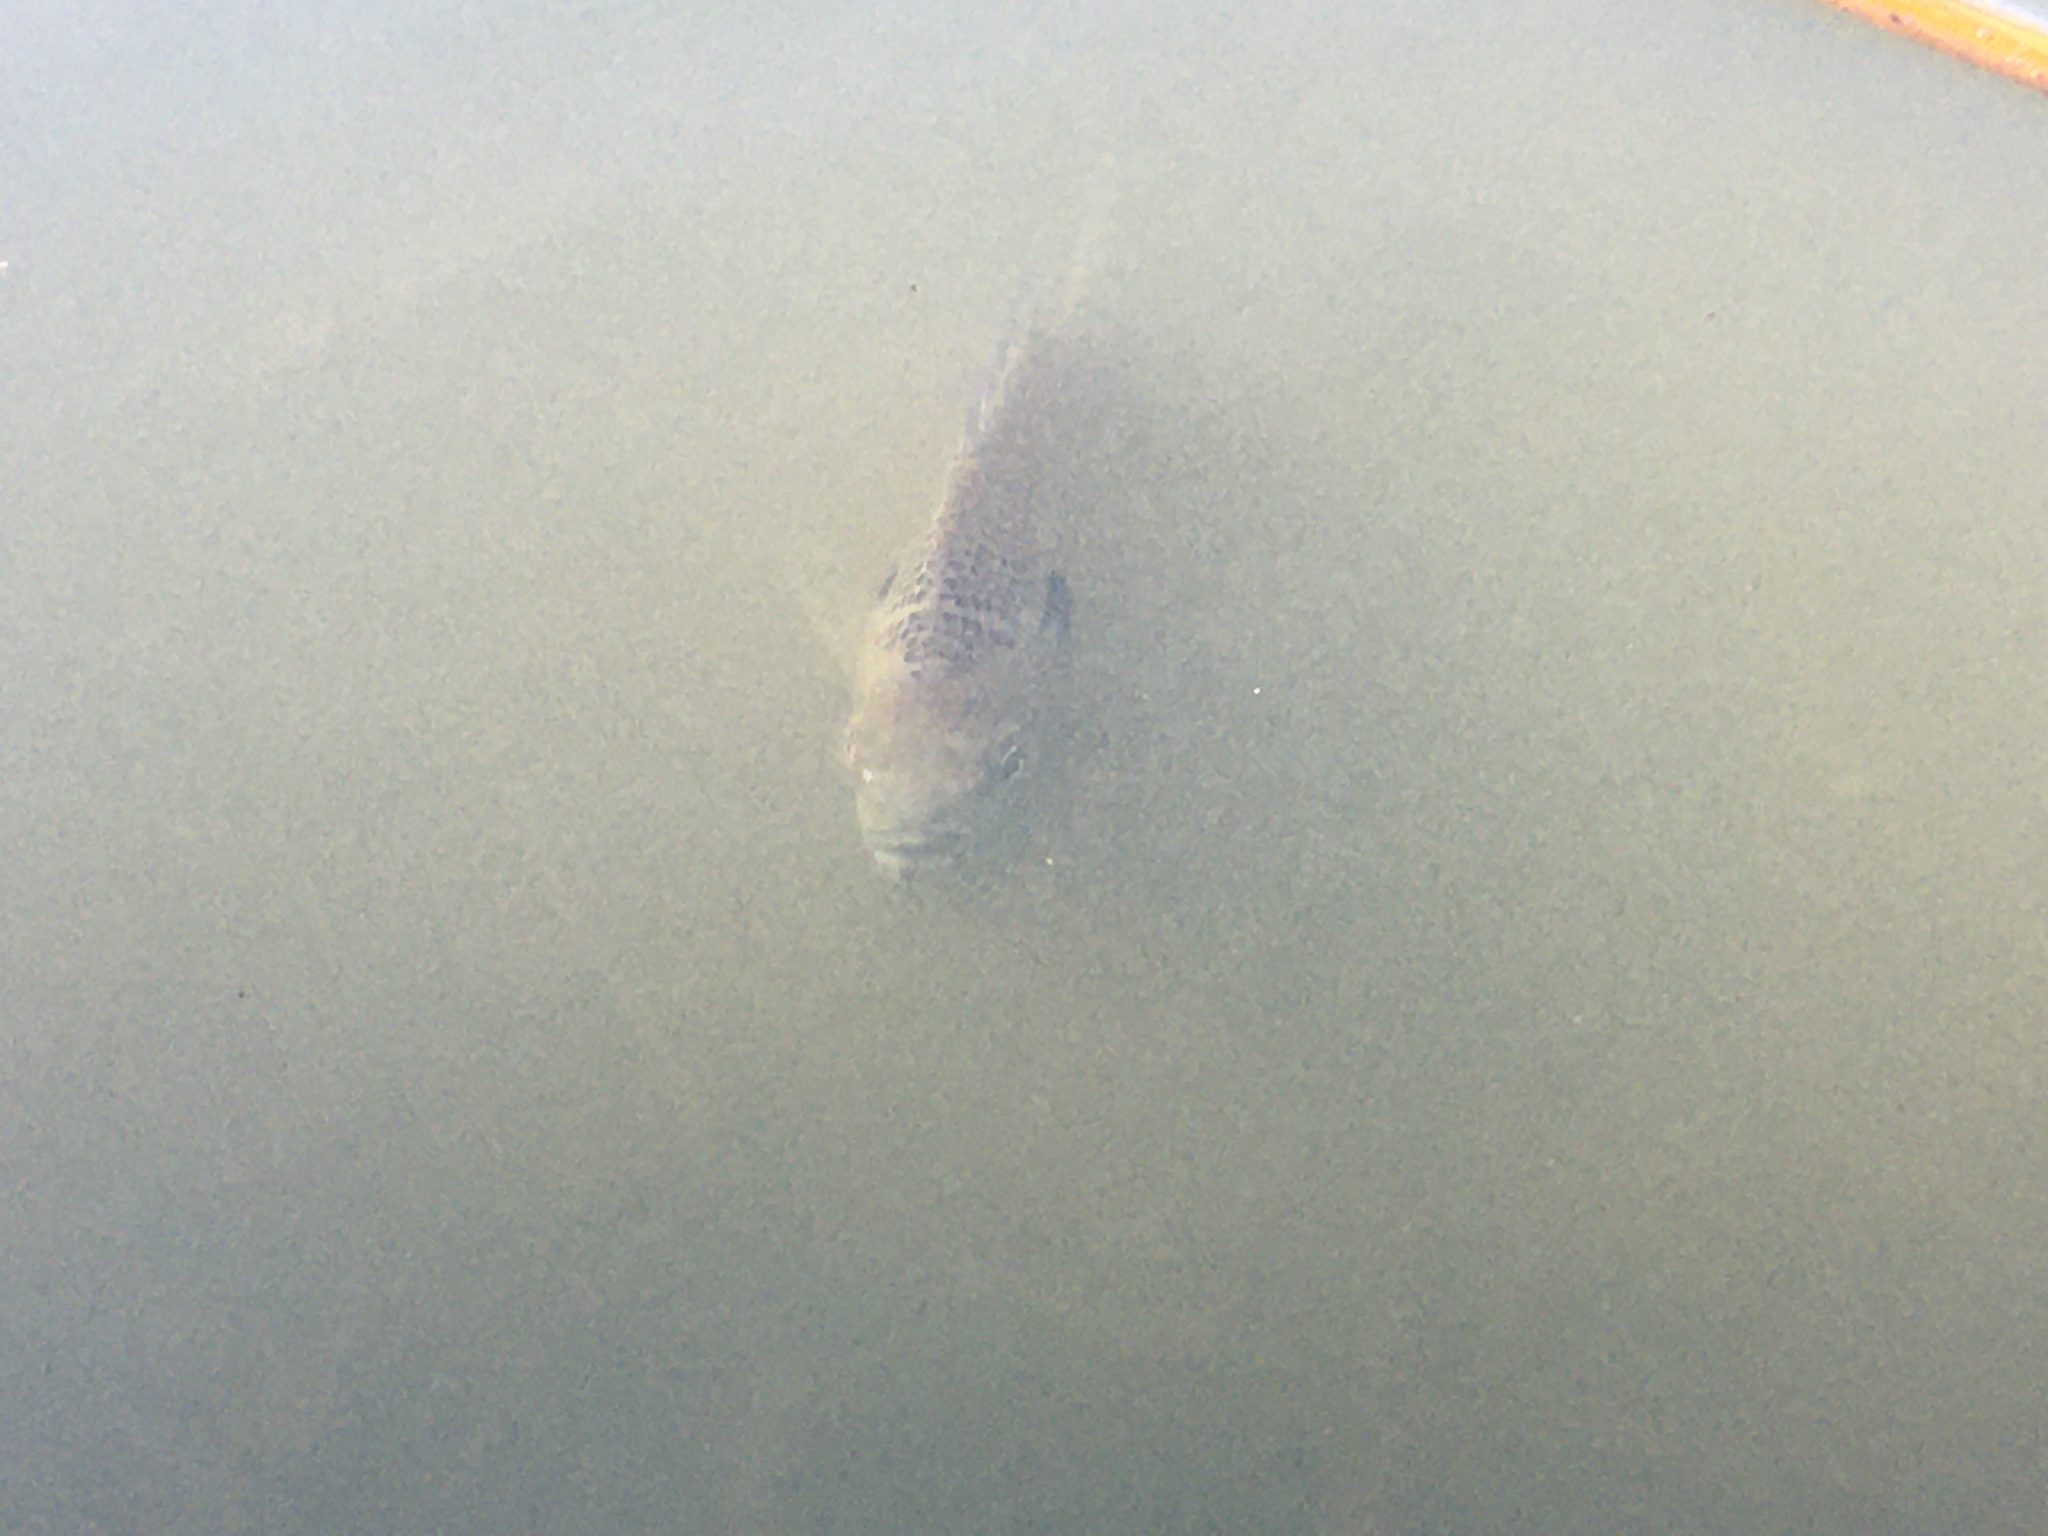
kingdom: Animalia
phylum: Chordata
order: Perciformes
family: Centrarchidae
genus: Lepomis
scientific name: Lepomis macrochirus
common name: Bluegill
